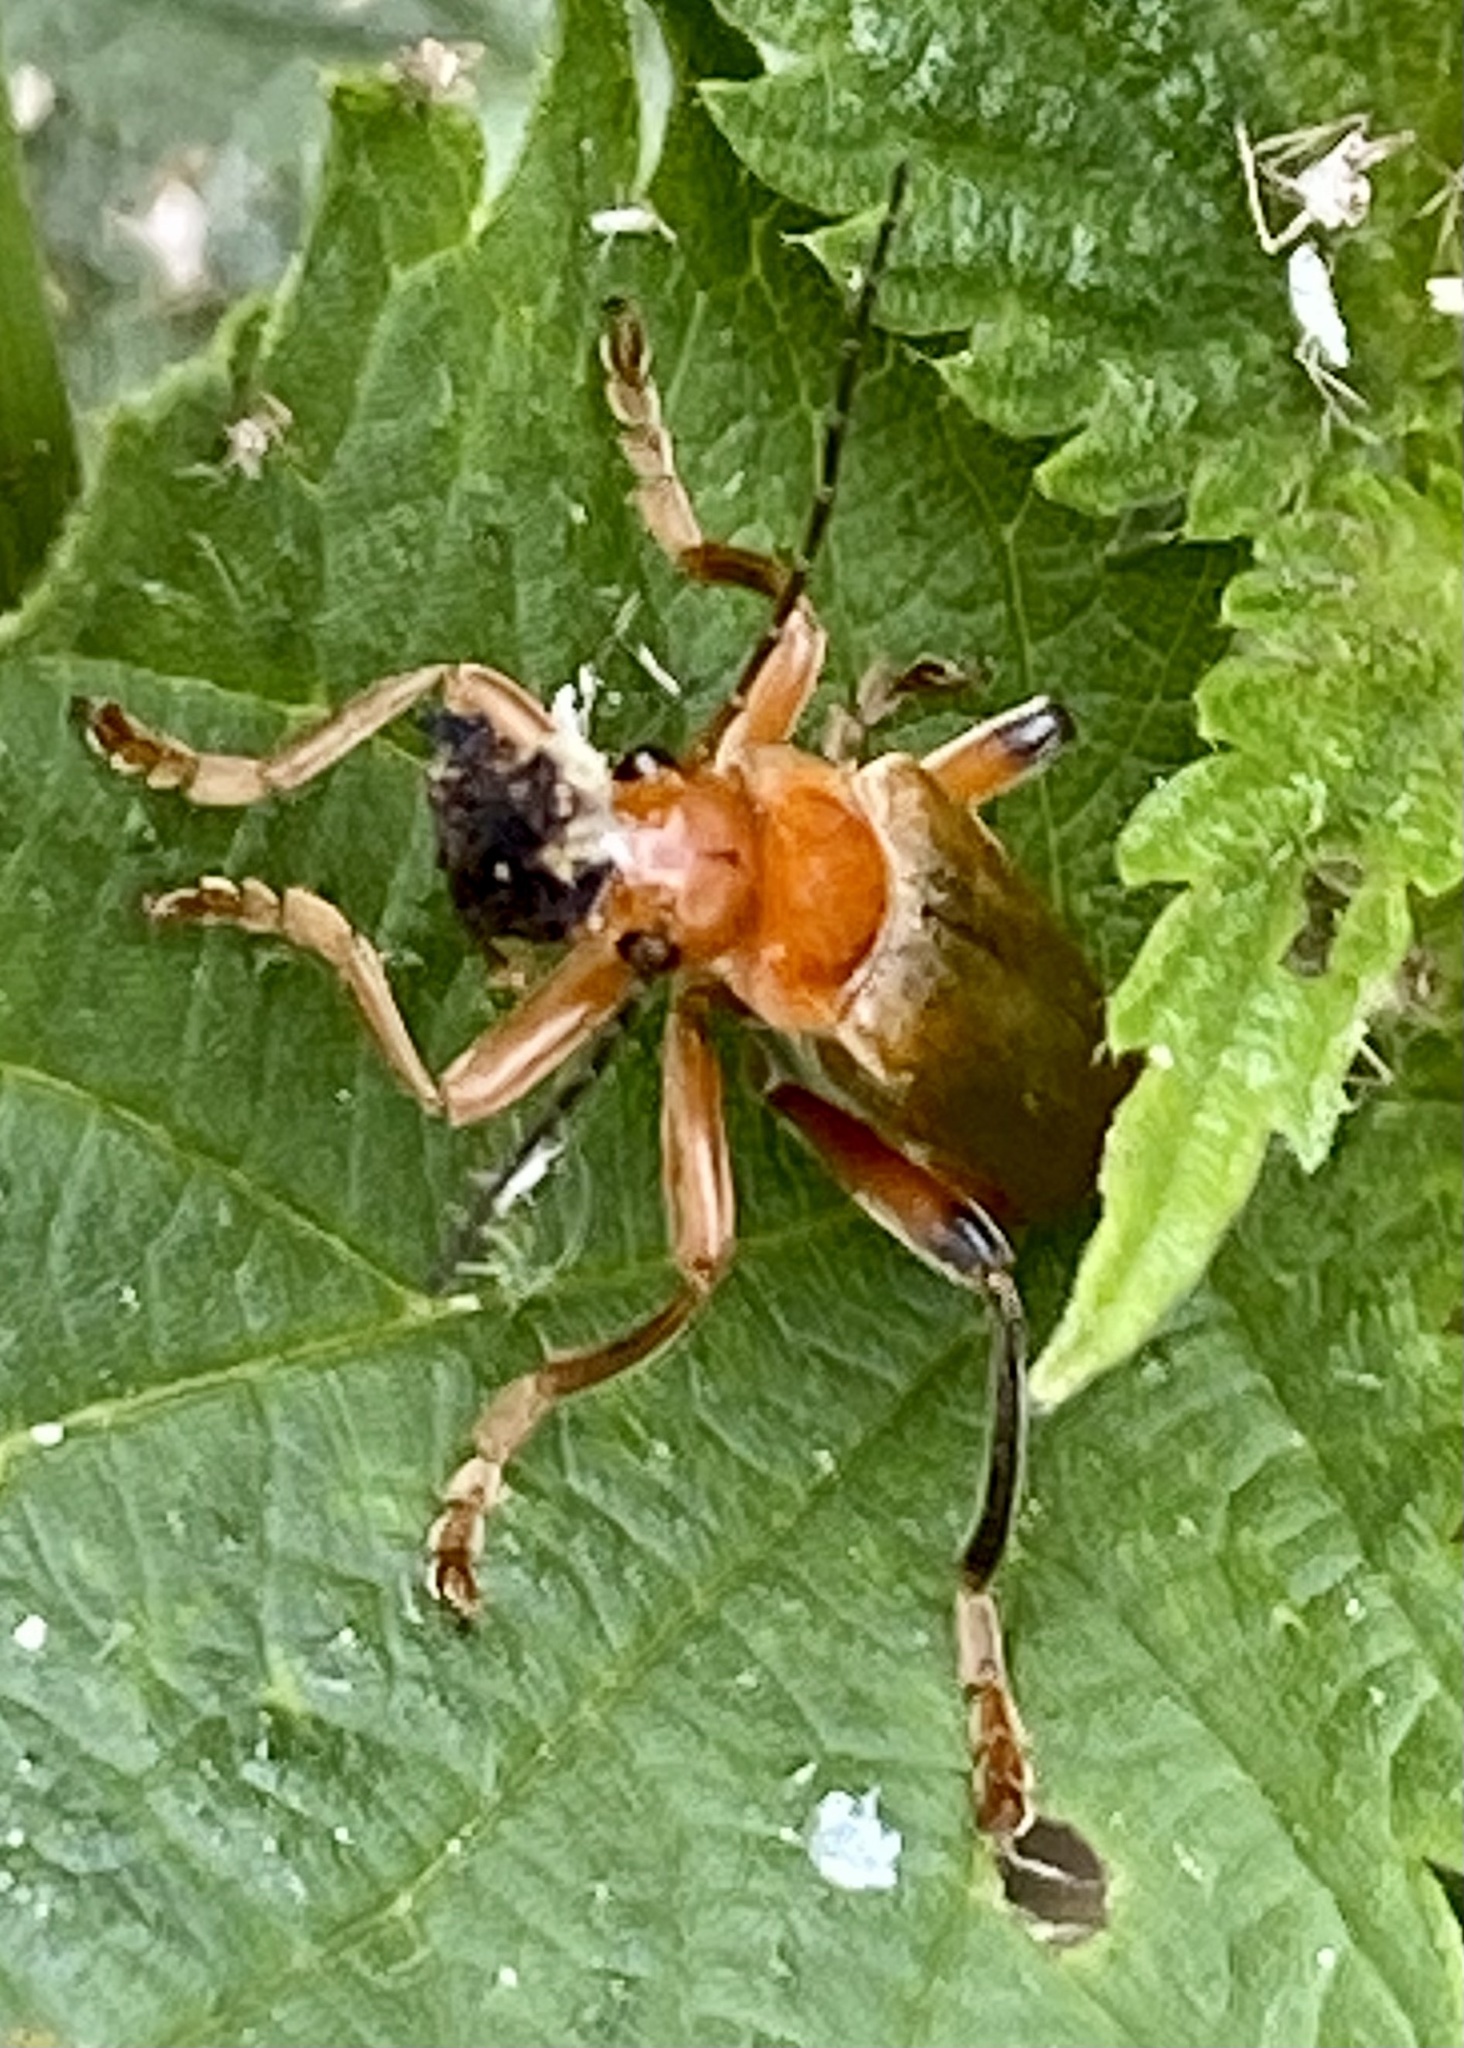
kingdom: Animalia
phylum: Arthropoda
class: Insecta
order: Coleoptera
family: Cantharidae
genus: Cantharis
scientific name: Cantharis livida
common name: Livid soldier beetle
